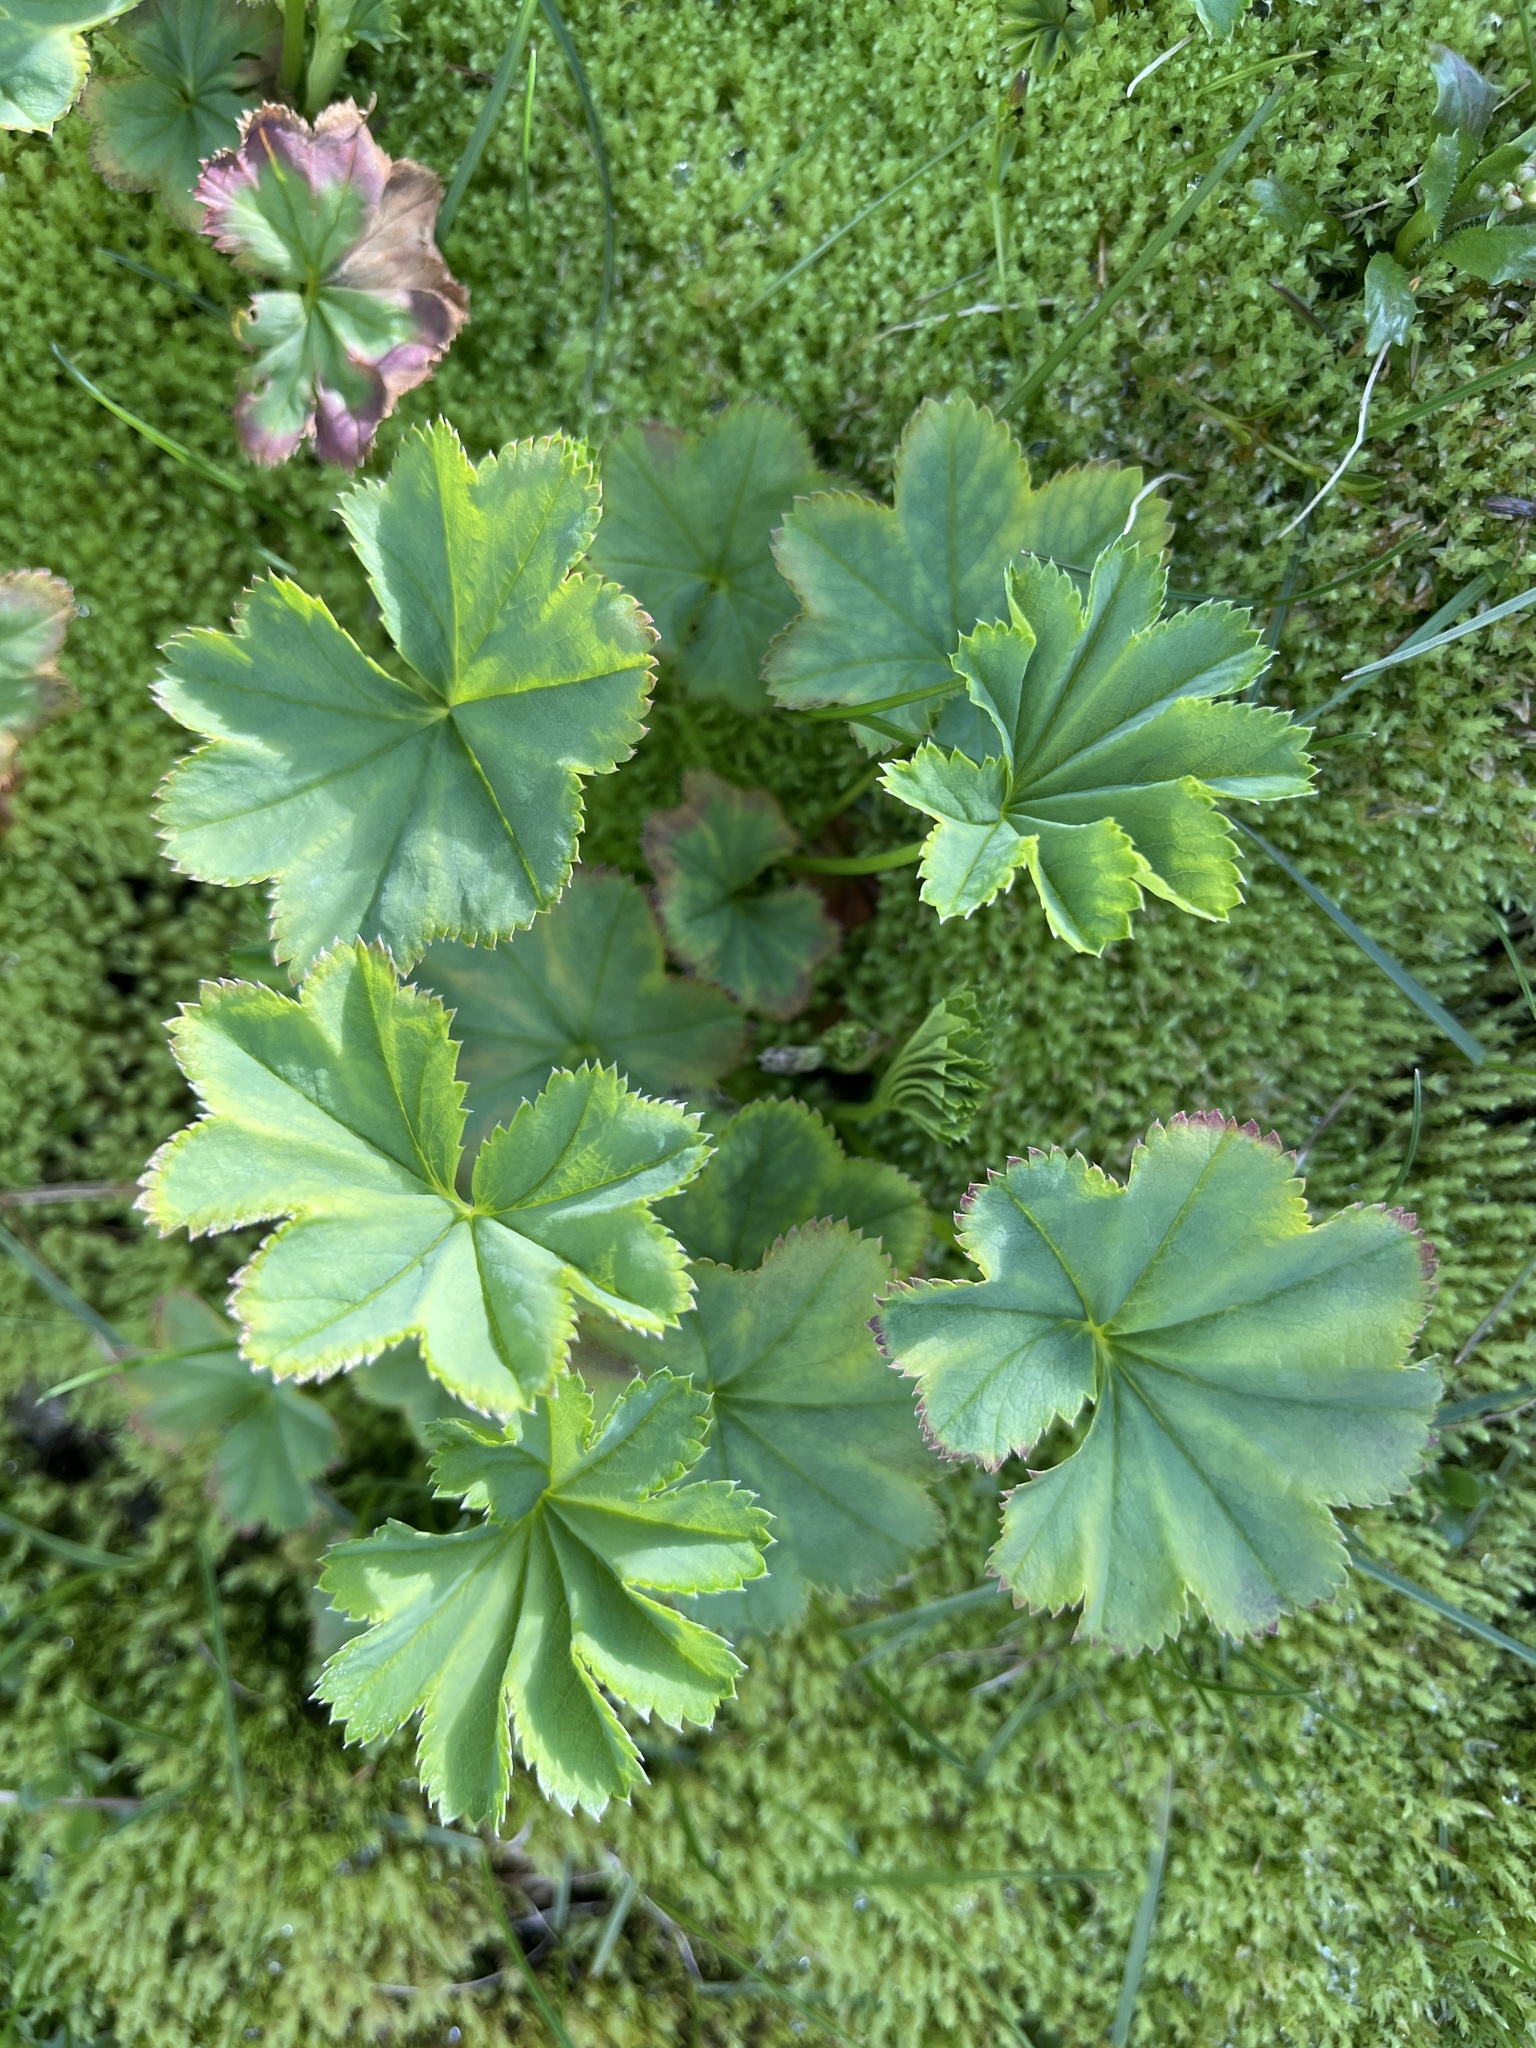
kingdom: Plantae
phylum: Tracheophyta
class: Magnoliopsida
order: Rosales
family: Rosaceae
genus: Alchemilla
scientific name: Alchemilla glomerulans
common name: Clustered lady's mantle
